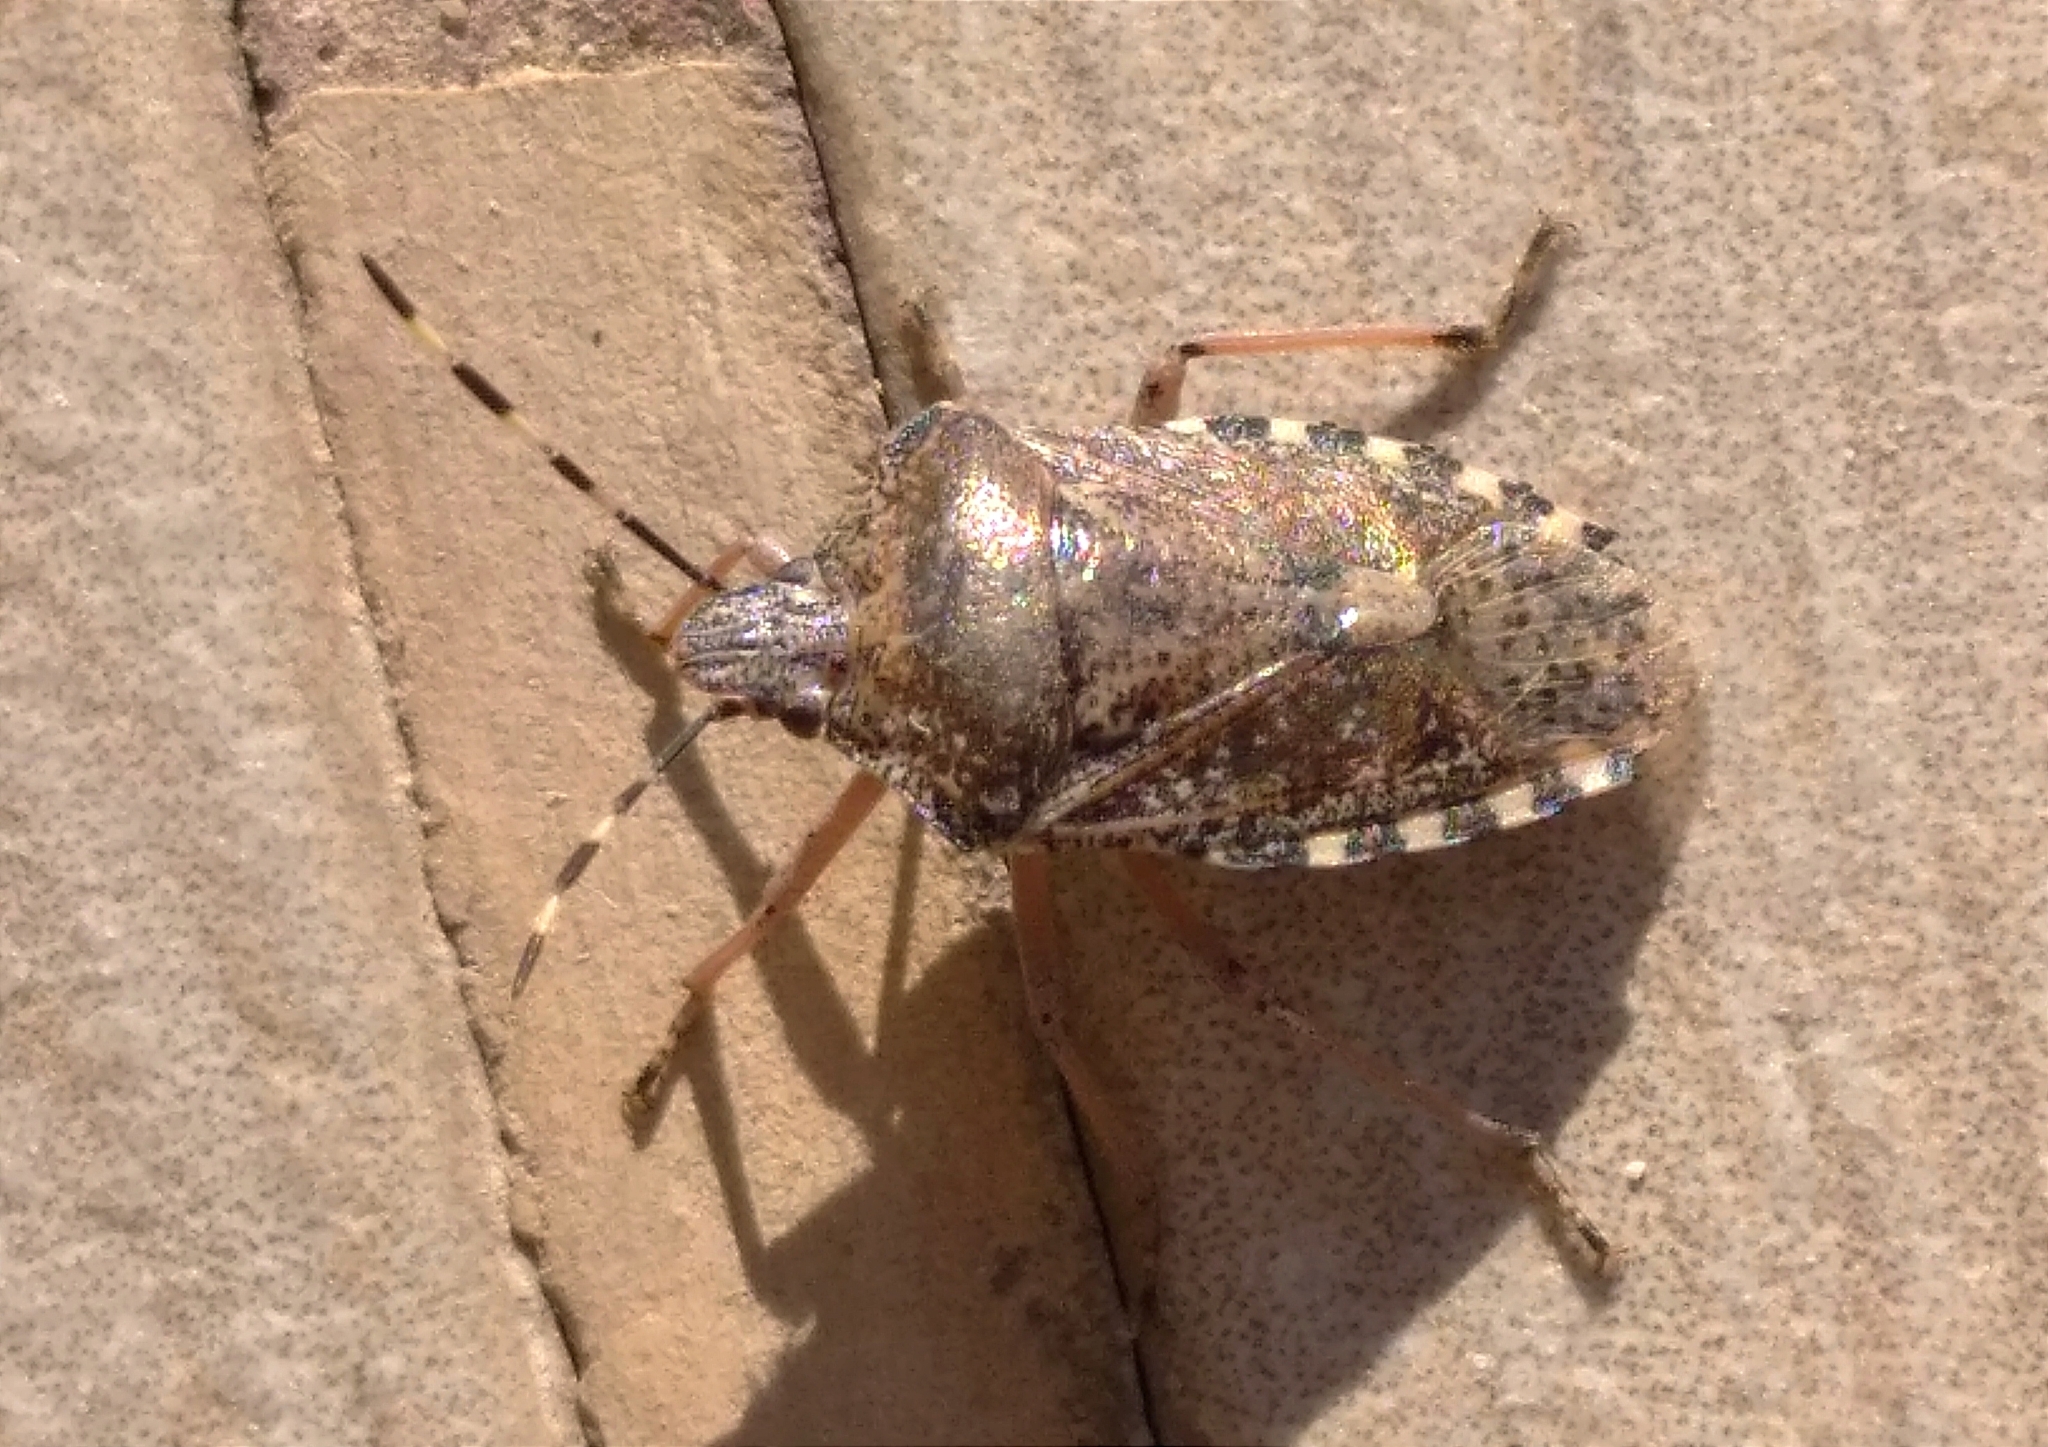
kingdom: Animalia
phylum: Arthropoda
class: Insecta
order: Hemiptera
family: Pentatomidae
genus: Rhaphigaster
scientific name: Rhaphigaster nebulosa
